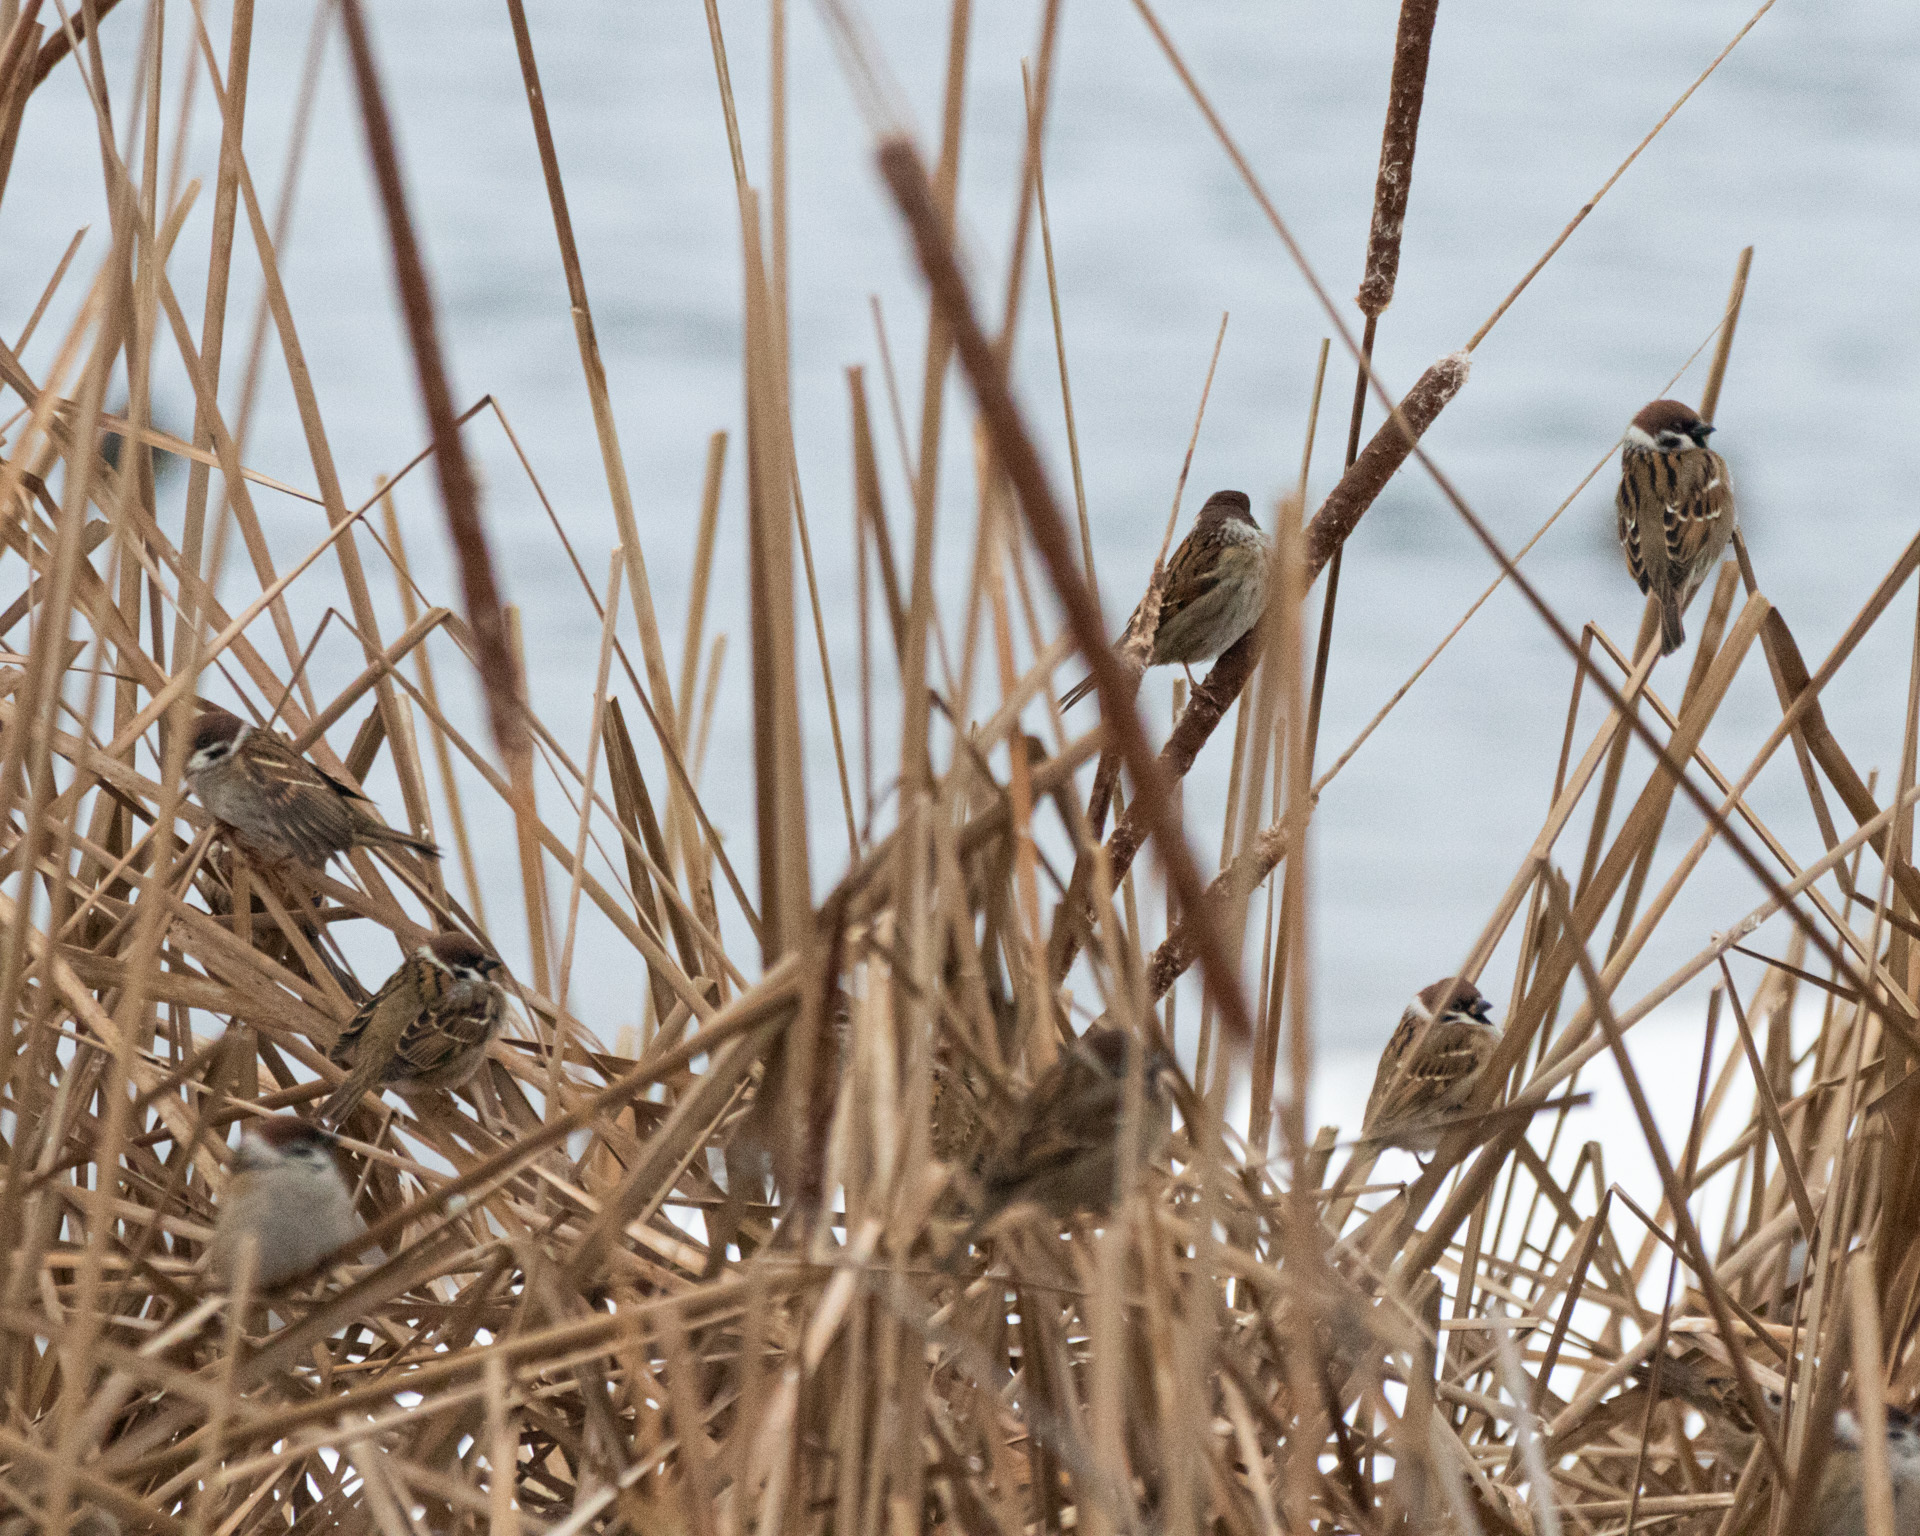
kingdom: Animalia
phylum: Chordata
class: Aves
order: Passeriformes
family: Passeridae
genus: Passer
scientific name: Passer montanus
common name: Eurasian tree sparrow
